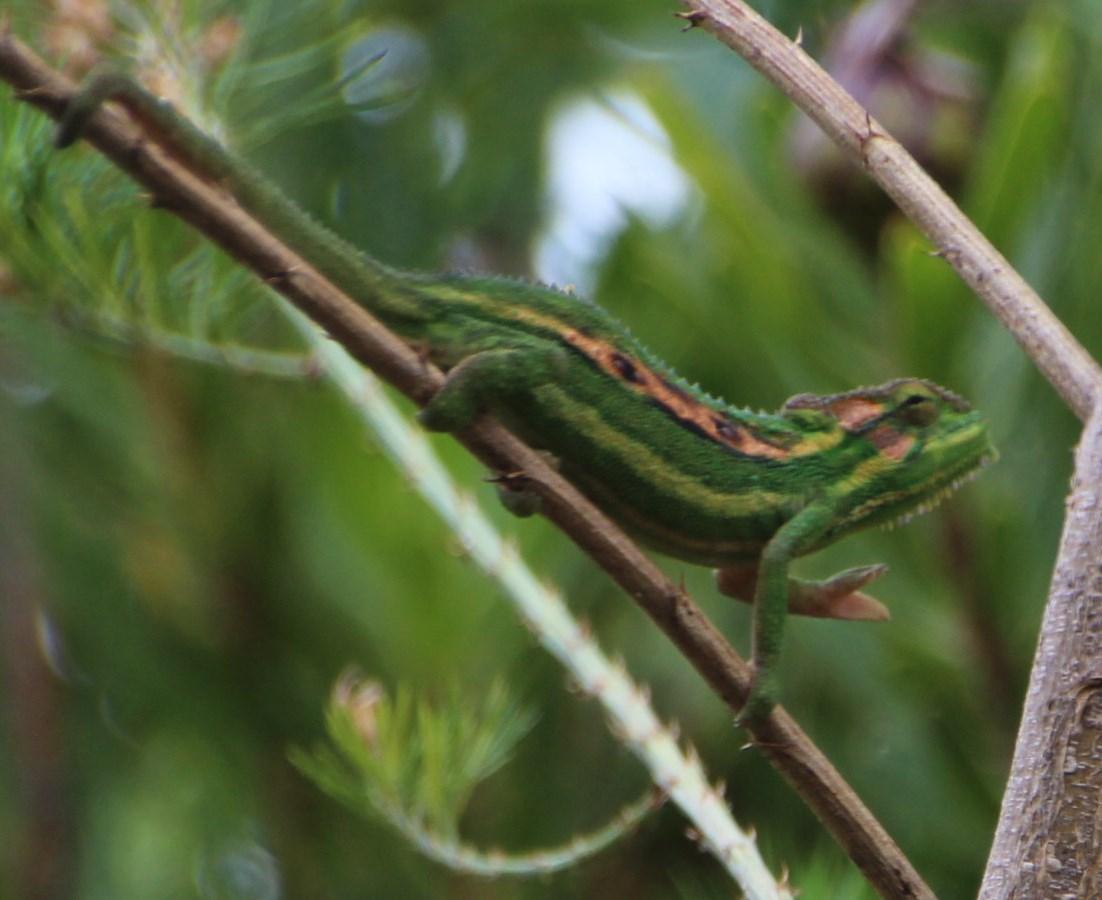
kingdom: Animalia
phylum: Chordata
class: Squamata
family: Chamaeleonidae
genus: Bradypodion
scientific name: Bradypodion pumilum
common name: Cape dwarf chameleon
